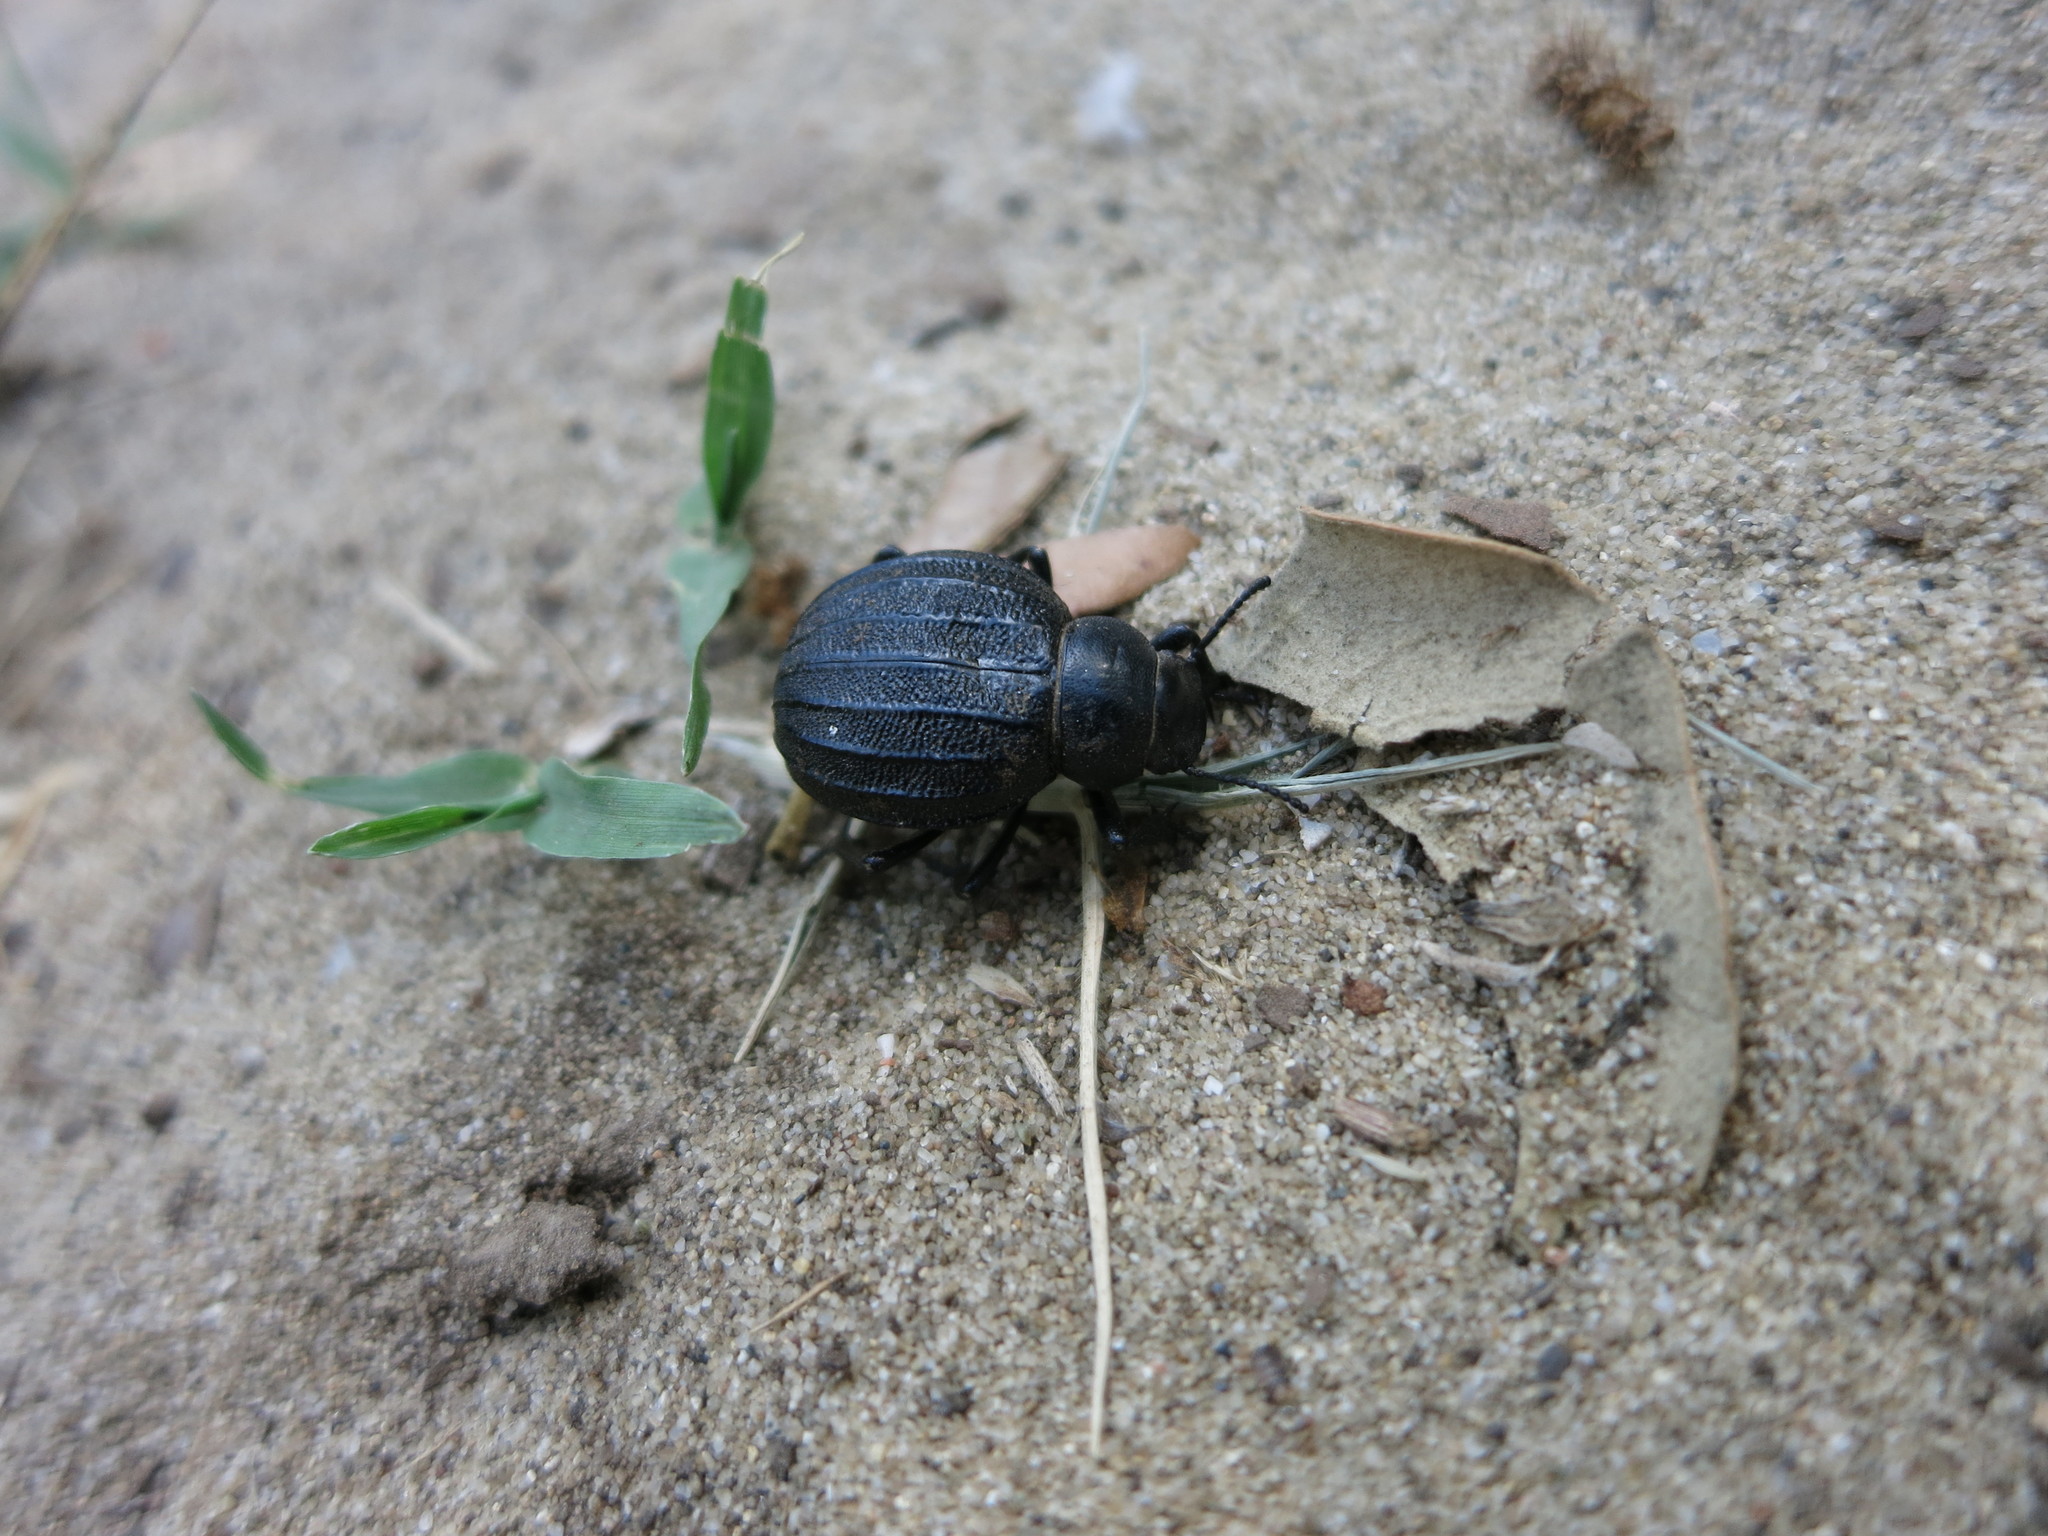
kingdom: Animalia
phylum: Arthropoda
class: Insecta
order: Coleoptera
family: Tenebrionidae
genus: Pimelia
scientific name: Pimelia bipunctata
